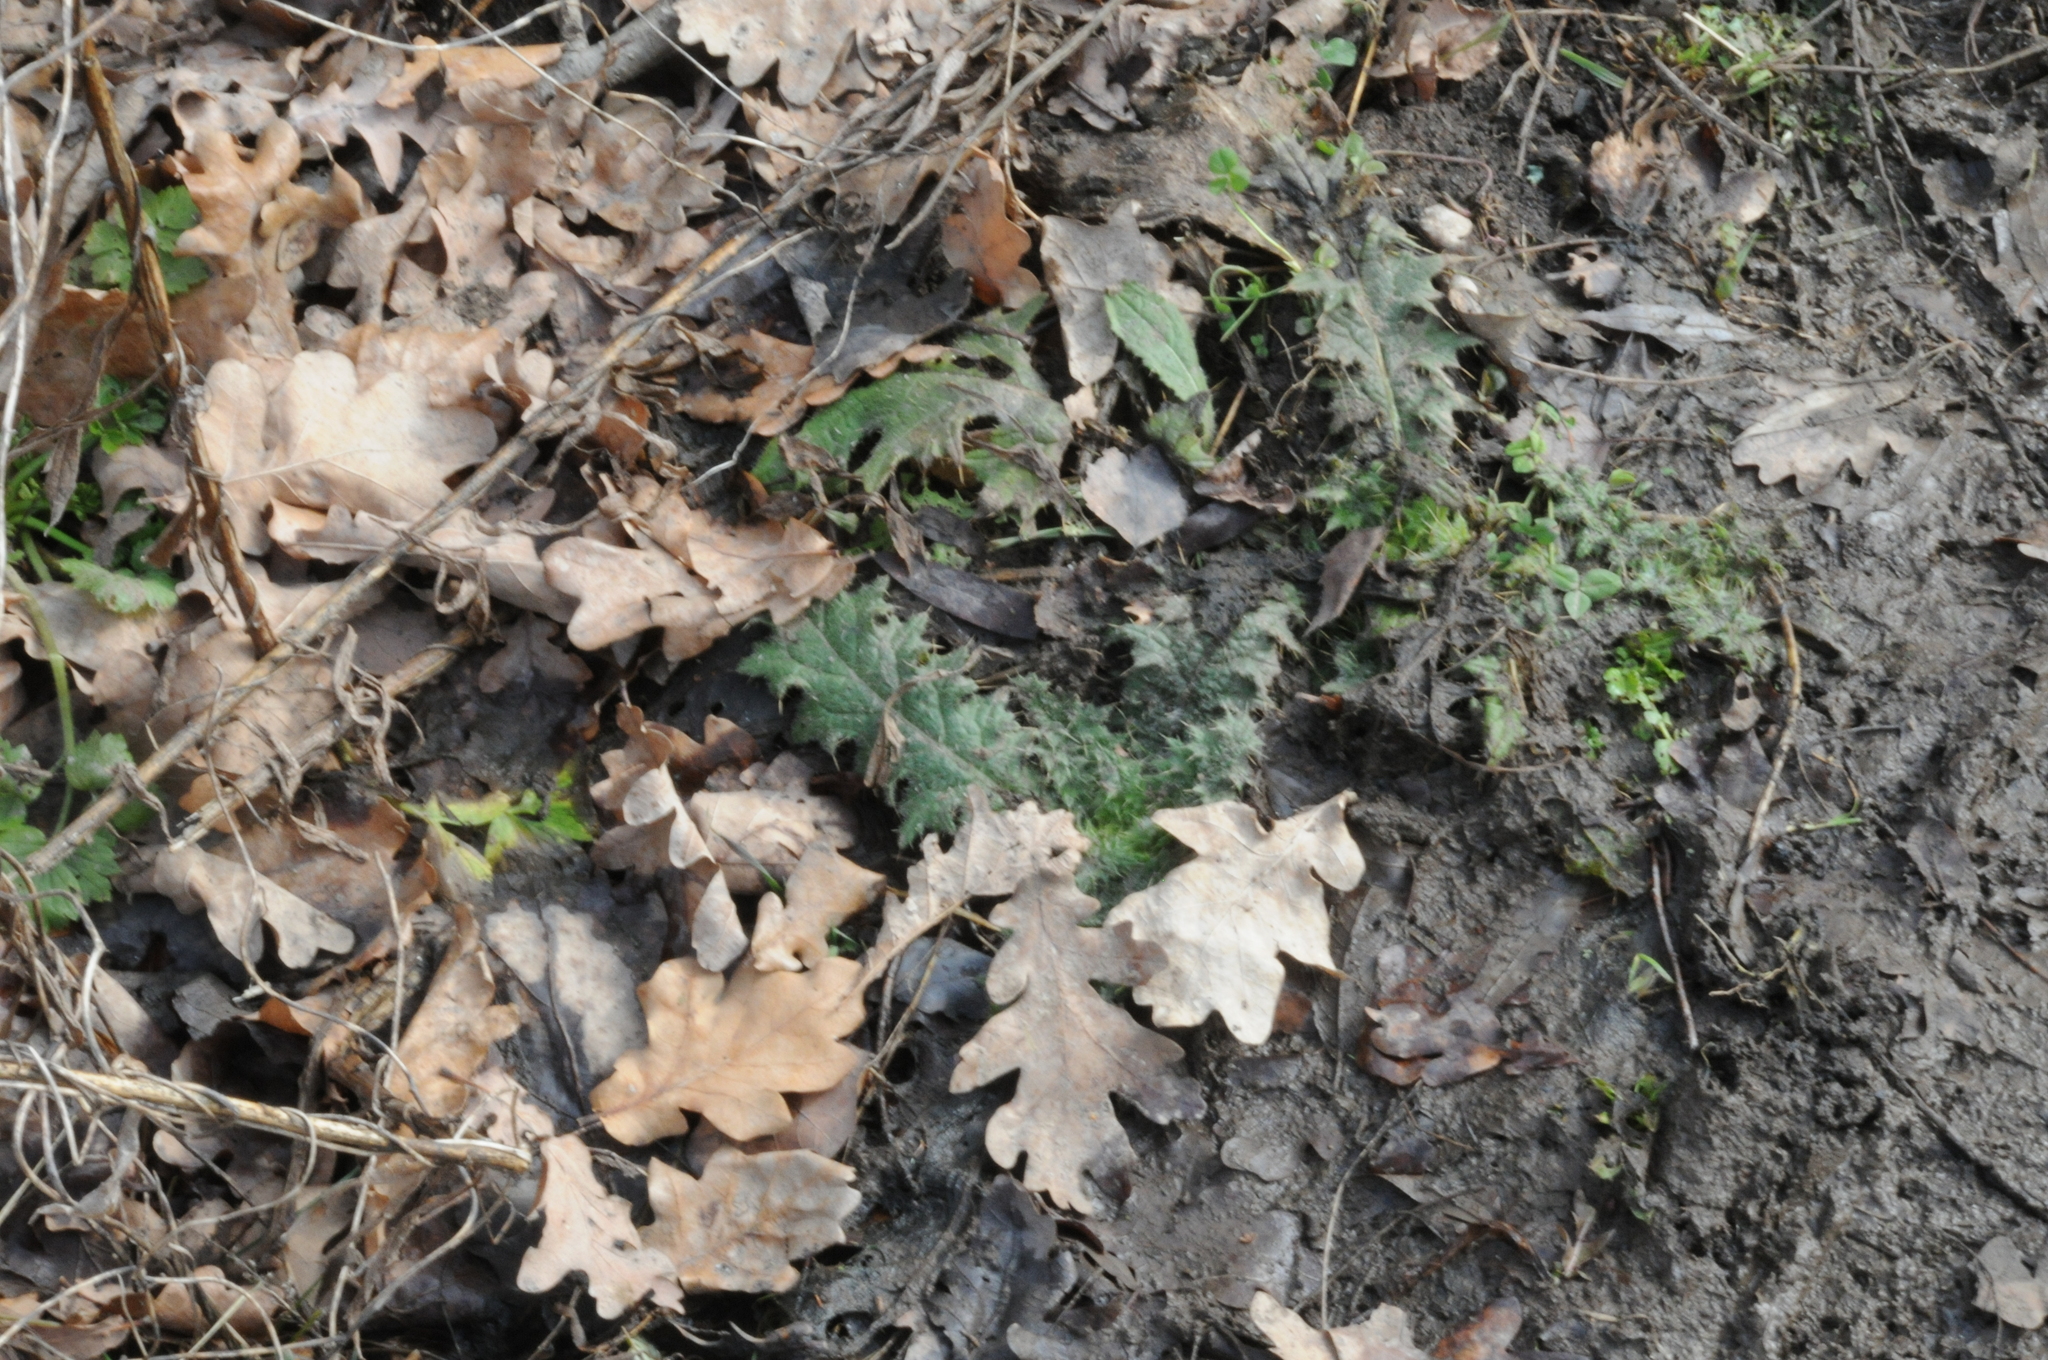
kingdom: Plantae
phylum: Tracheophyta
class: Magnoliopsida
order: Asterales
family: Asteraceae
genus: Cirsium
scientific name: Cirsium vulgare
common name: Bull thistle
